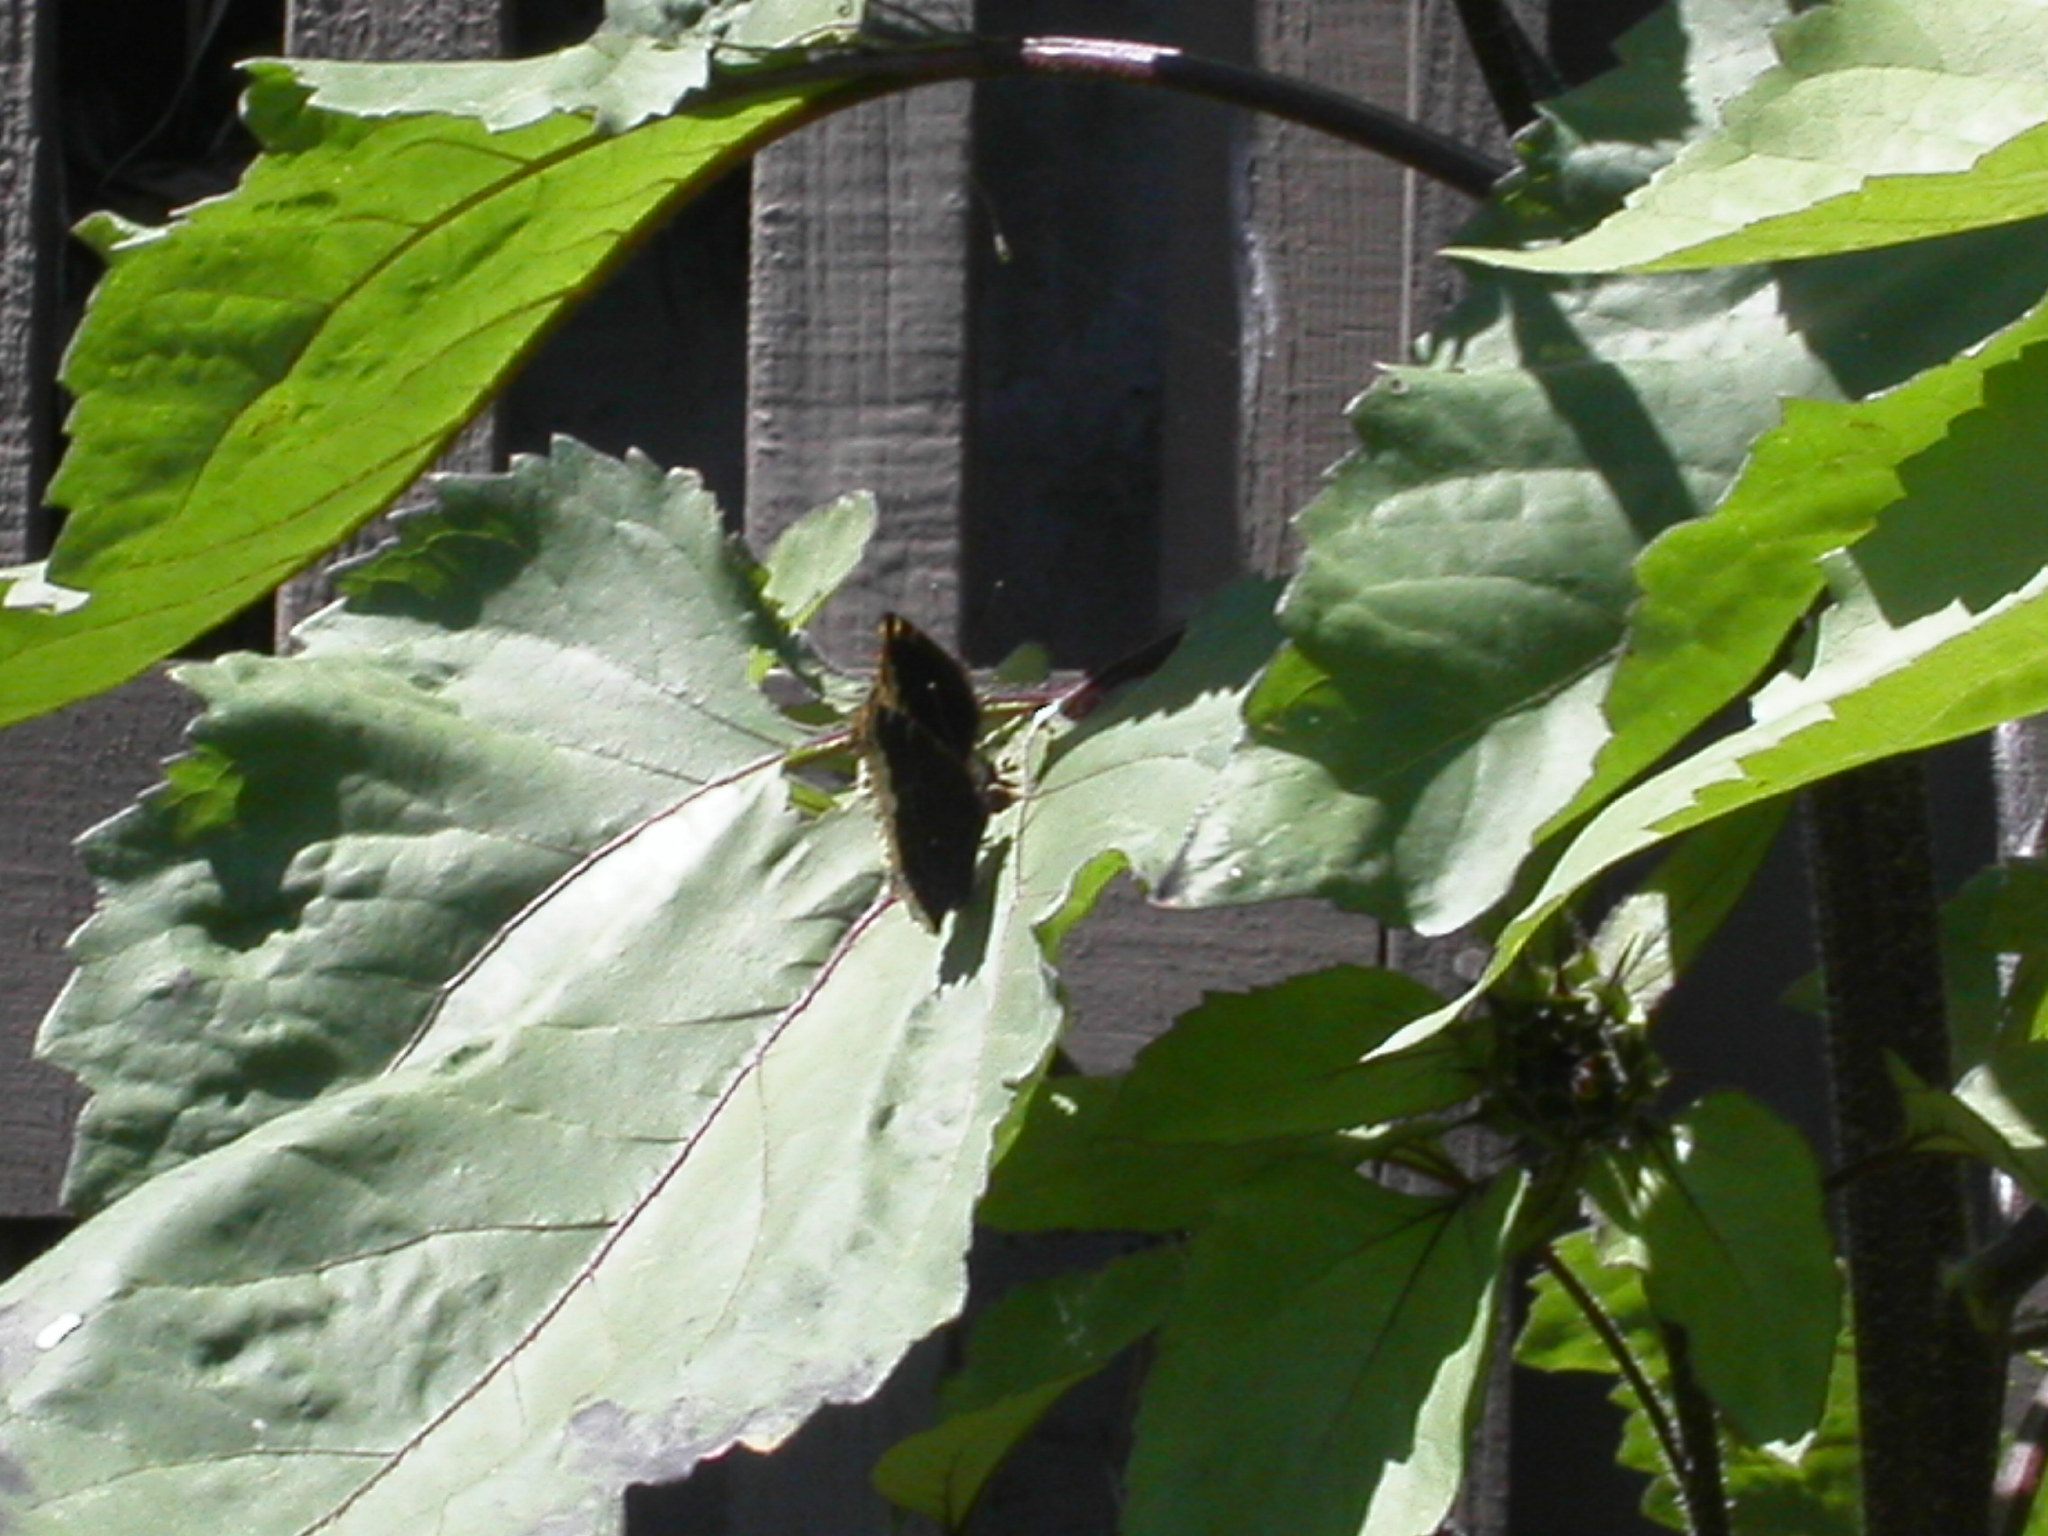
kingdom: Animalia
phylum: Arthropoda
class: Insecta
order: Lepidoptera
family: Nymphalidae
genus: Nymphalis
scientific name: Nymphalis antiopa
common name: Camberwell beauty
